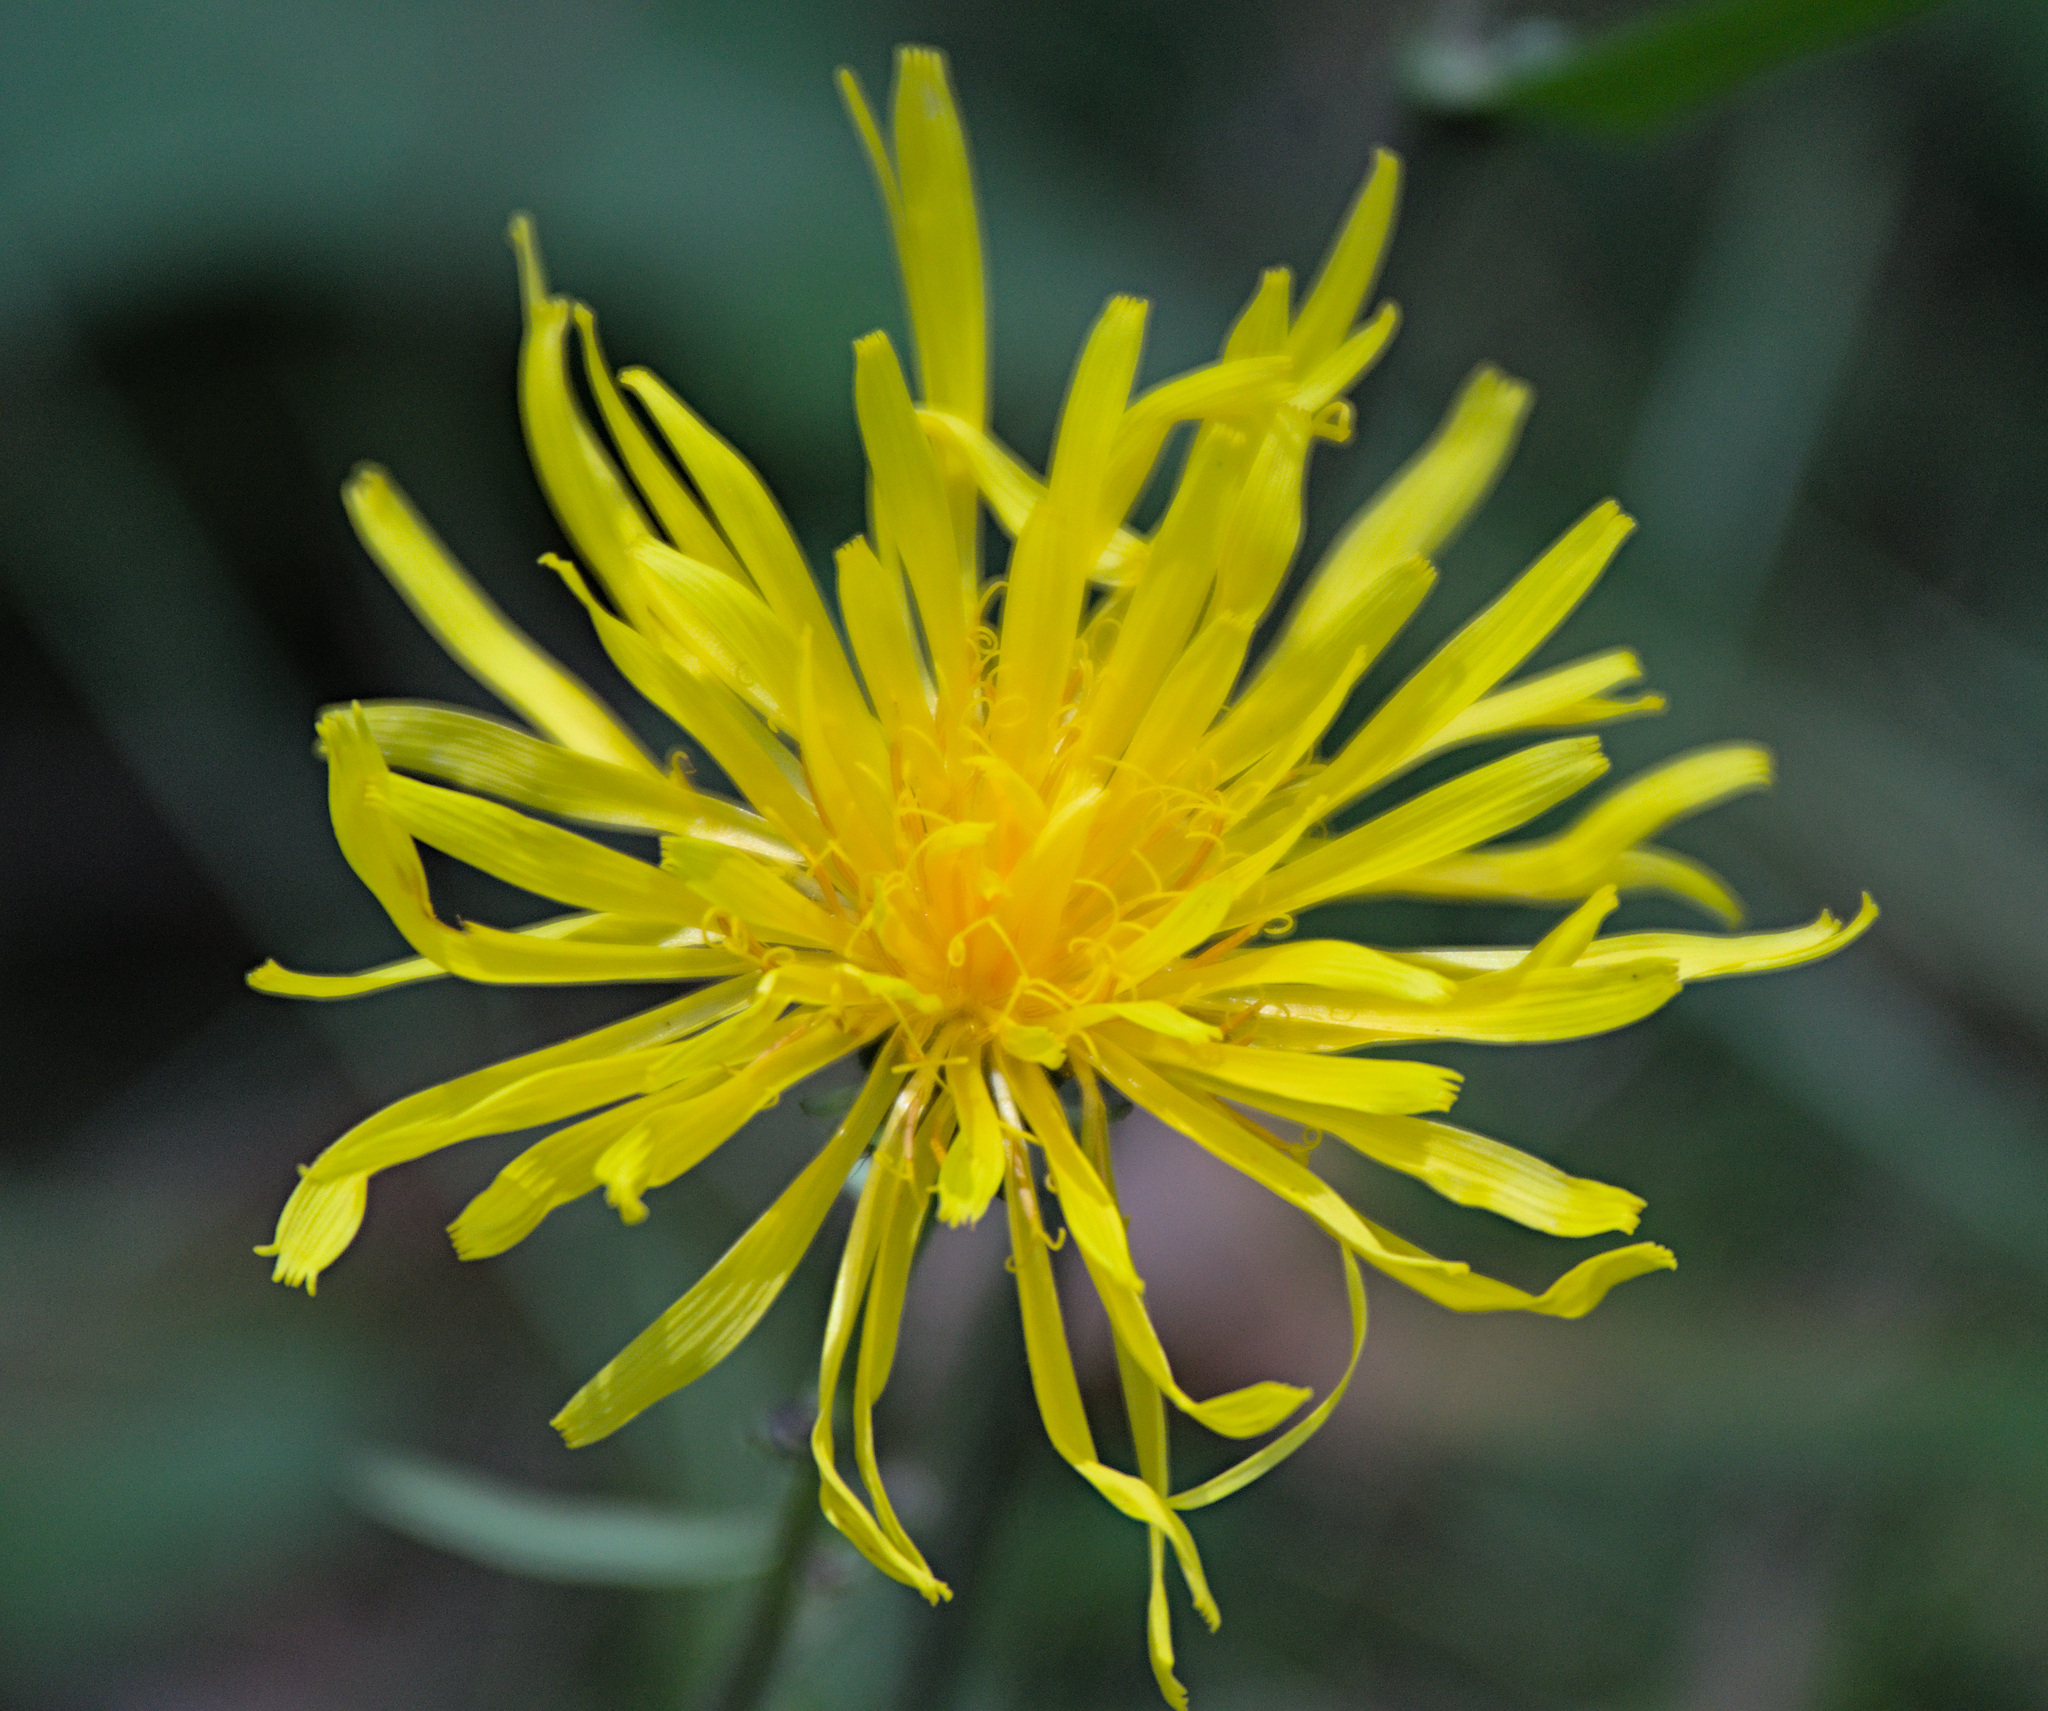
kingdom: Plantae
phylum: Tracheophyta
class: Magnoliopsida
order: Asterales
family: Asteraceae
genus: Crepis
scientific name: Crepis sibirica
